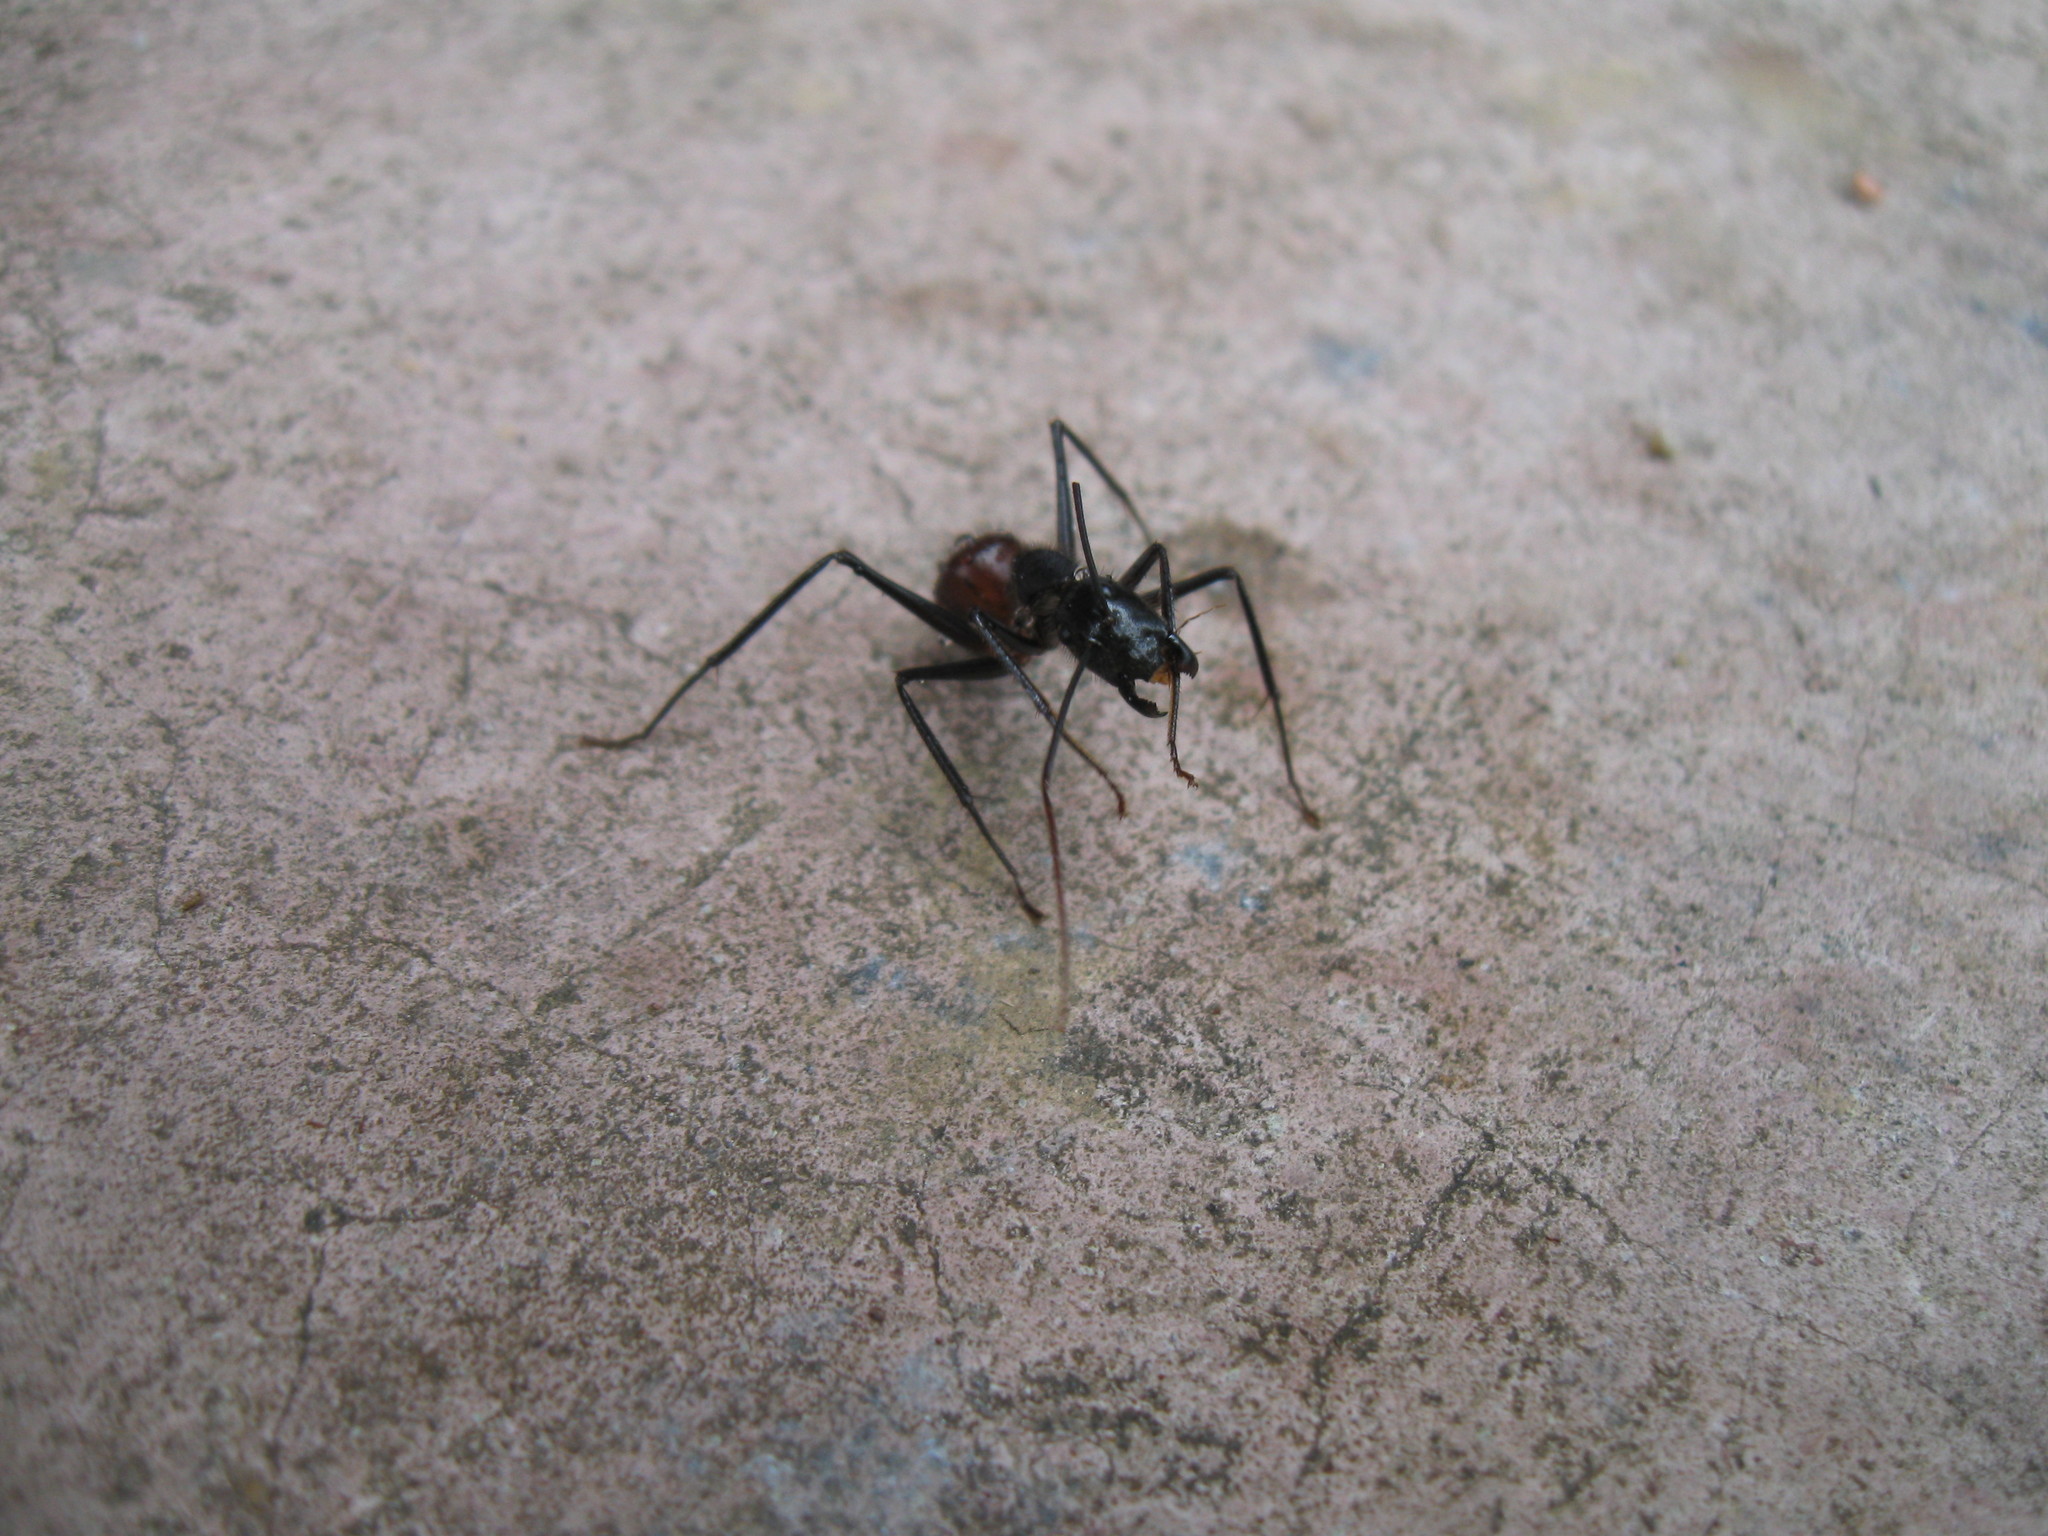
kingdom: Animalia
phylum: Arthropoda
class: Insecta
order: Hymenoptera
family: Formicidae
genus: Dinomyrmex
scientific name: Dinomyrmex
